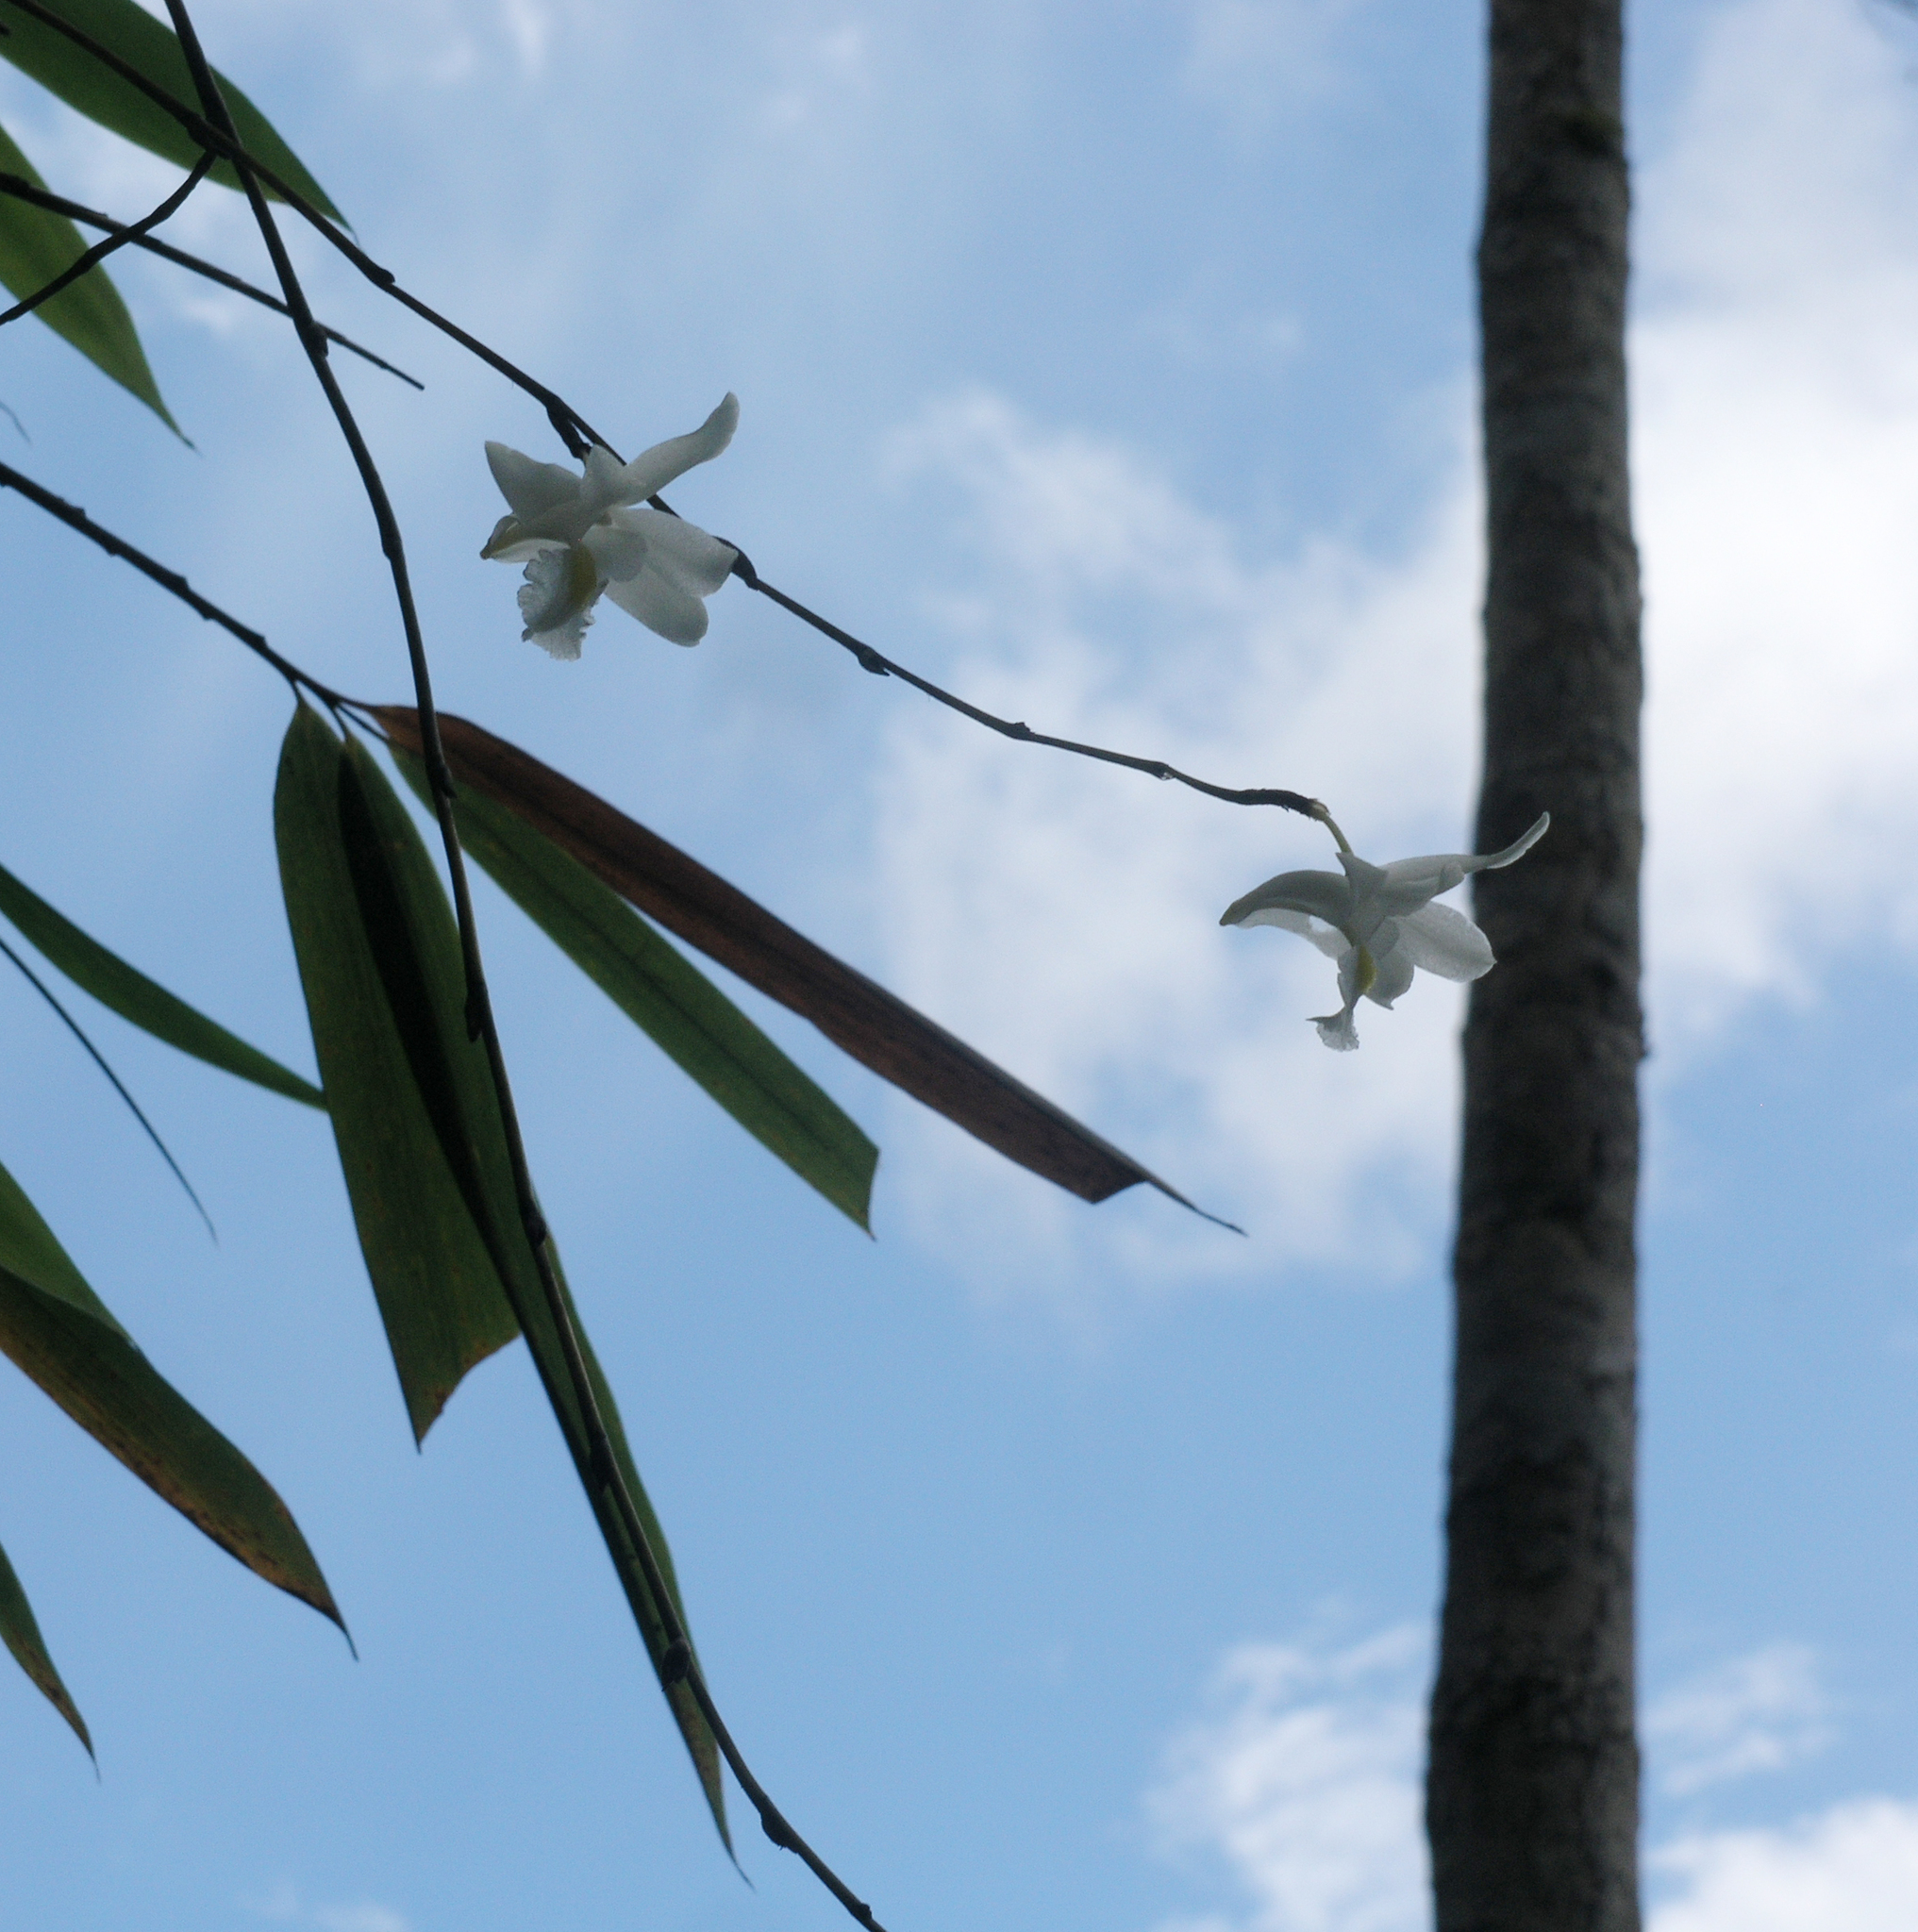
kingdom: Plantae
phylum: Tracheophyta
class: Liliopsida
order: Asparagales
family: Orchidaceae
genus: Dendrobium
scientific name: Dendrobium crumenatum
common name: Orchid
